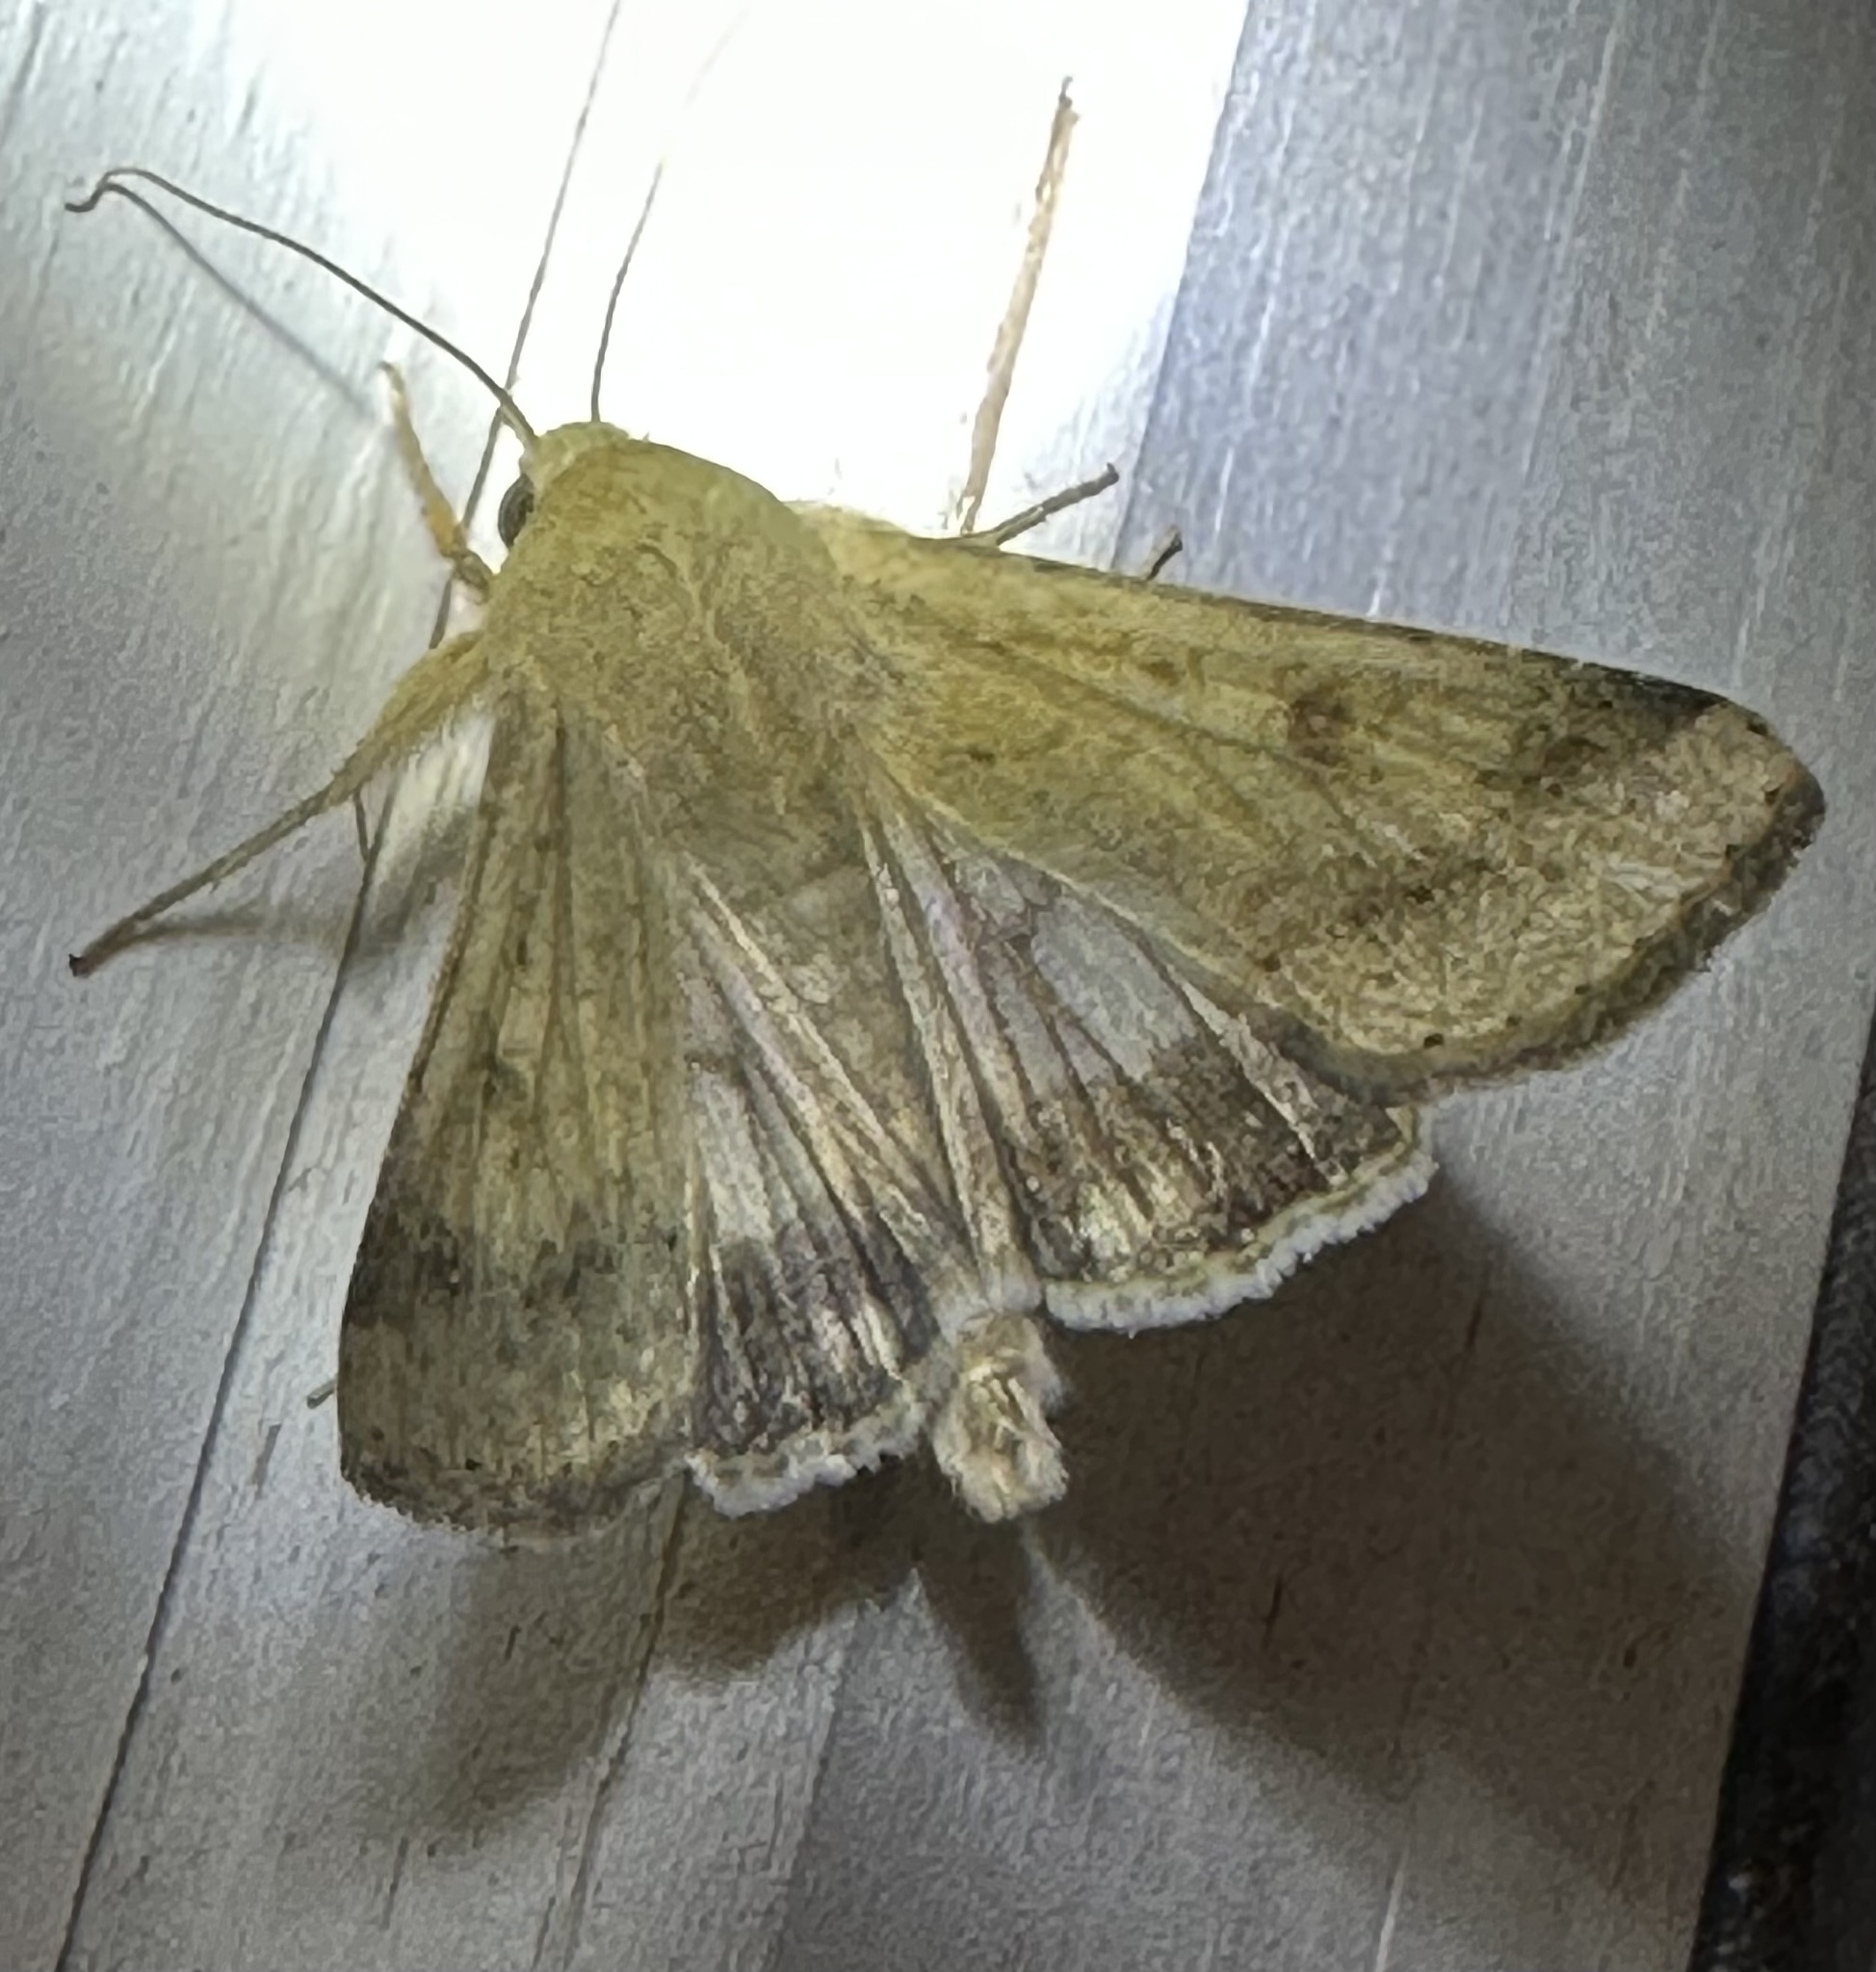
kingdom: Animalia
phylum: Arthropoda
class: Insecta
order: Lepidoptera
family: Noctuidae
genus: Helicoverpa
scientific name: Helicoverpa zea
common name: Bollworm
